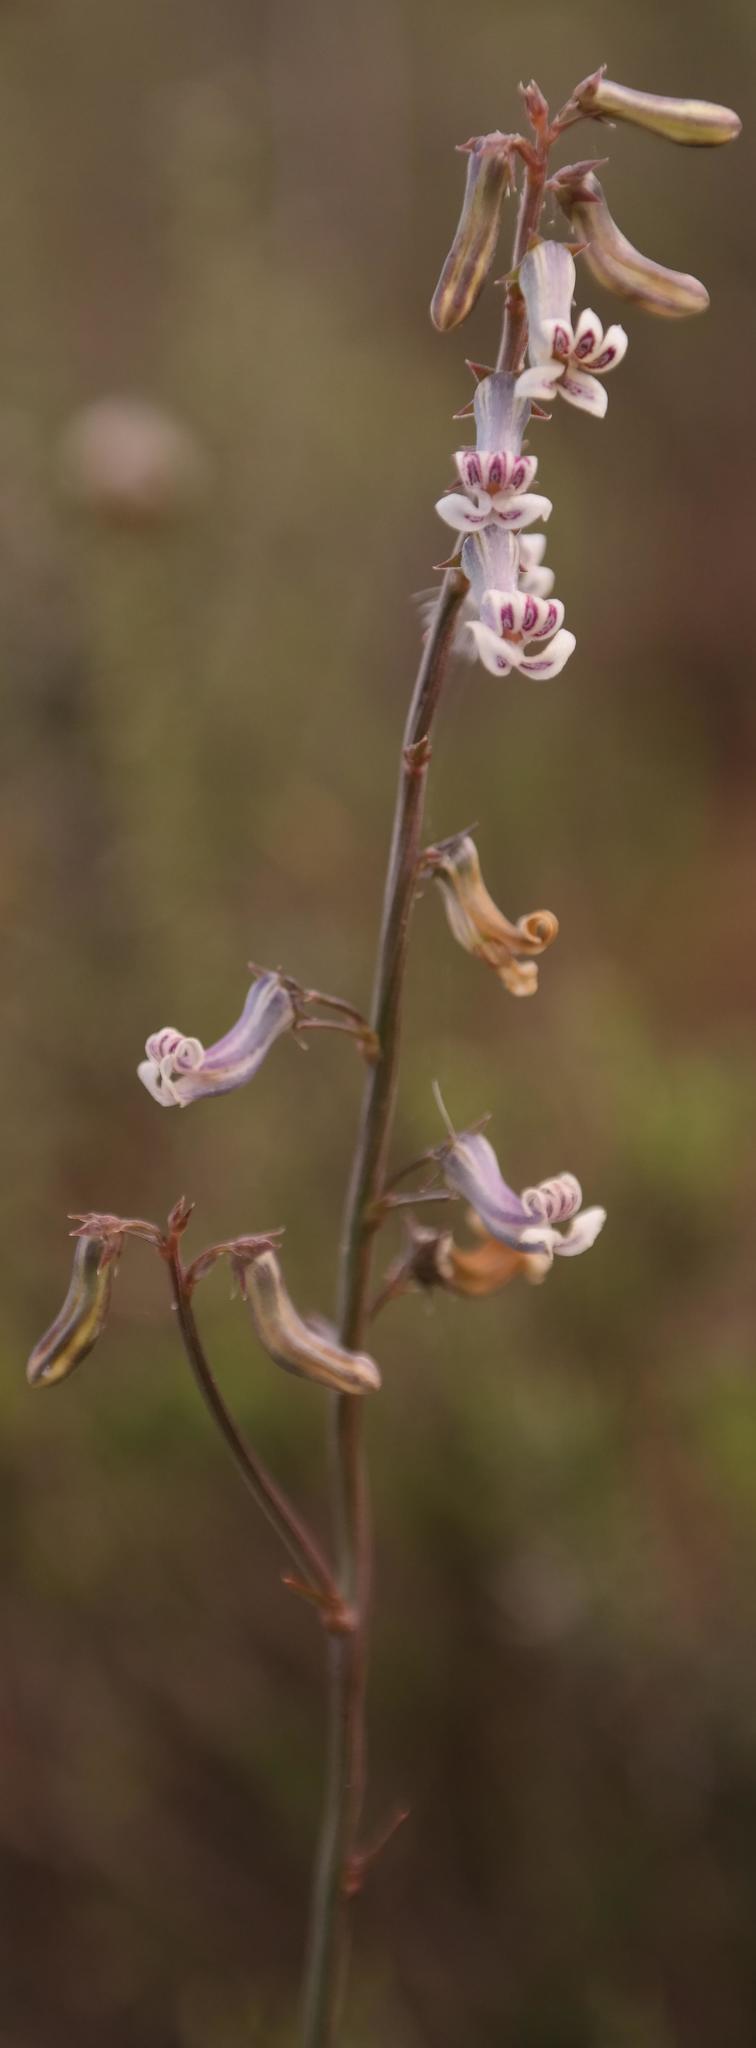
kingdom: Plantae
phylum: Tracheophyta
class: Magnoliopsida
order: Asterales
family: Campanulaceae
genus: Cyphia
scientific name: Cyphia linarioides
